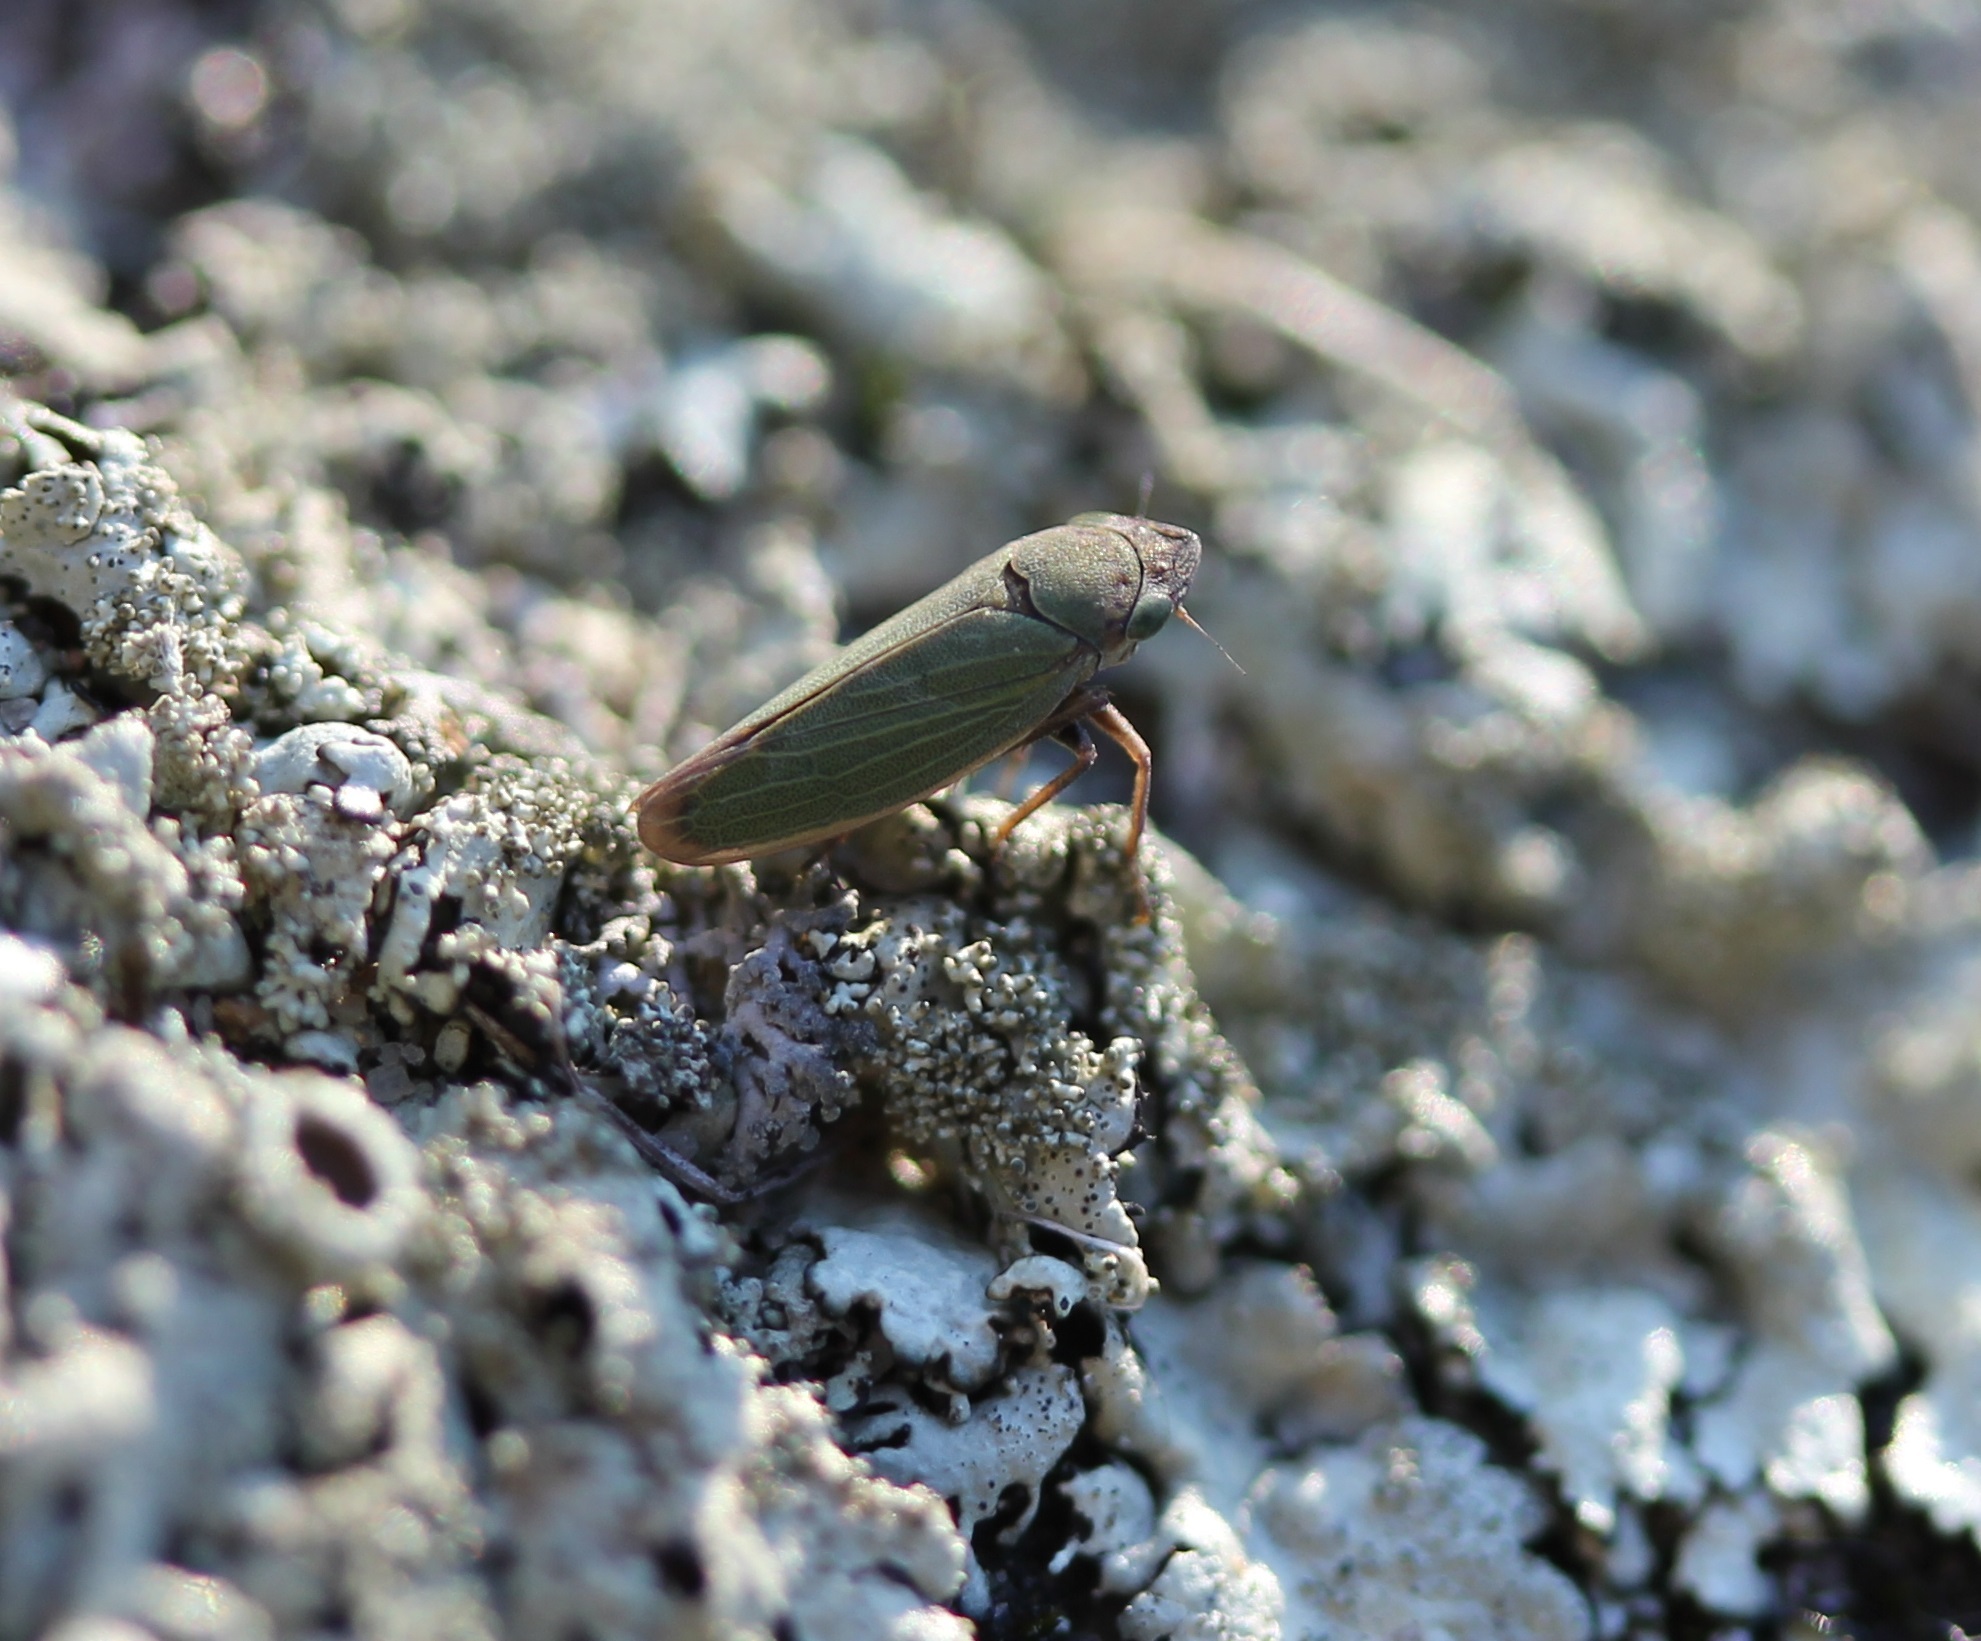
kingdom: Animalia
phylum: Arthropoda
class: Insecta
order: Hemiptera
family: Cicadellidae
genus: Helochara
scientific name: Helochara communis
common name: Bog leafhopper
